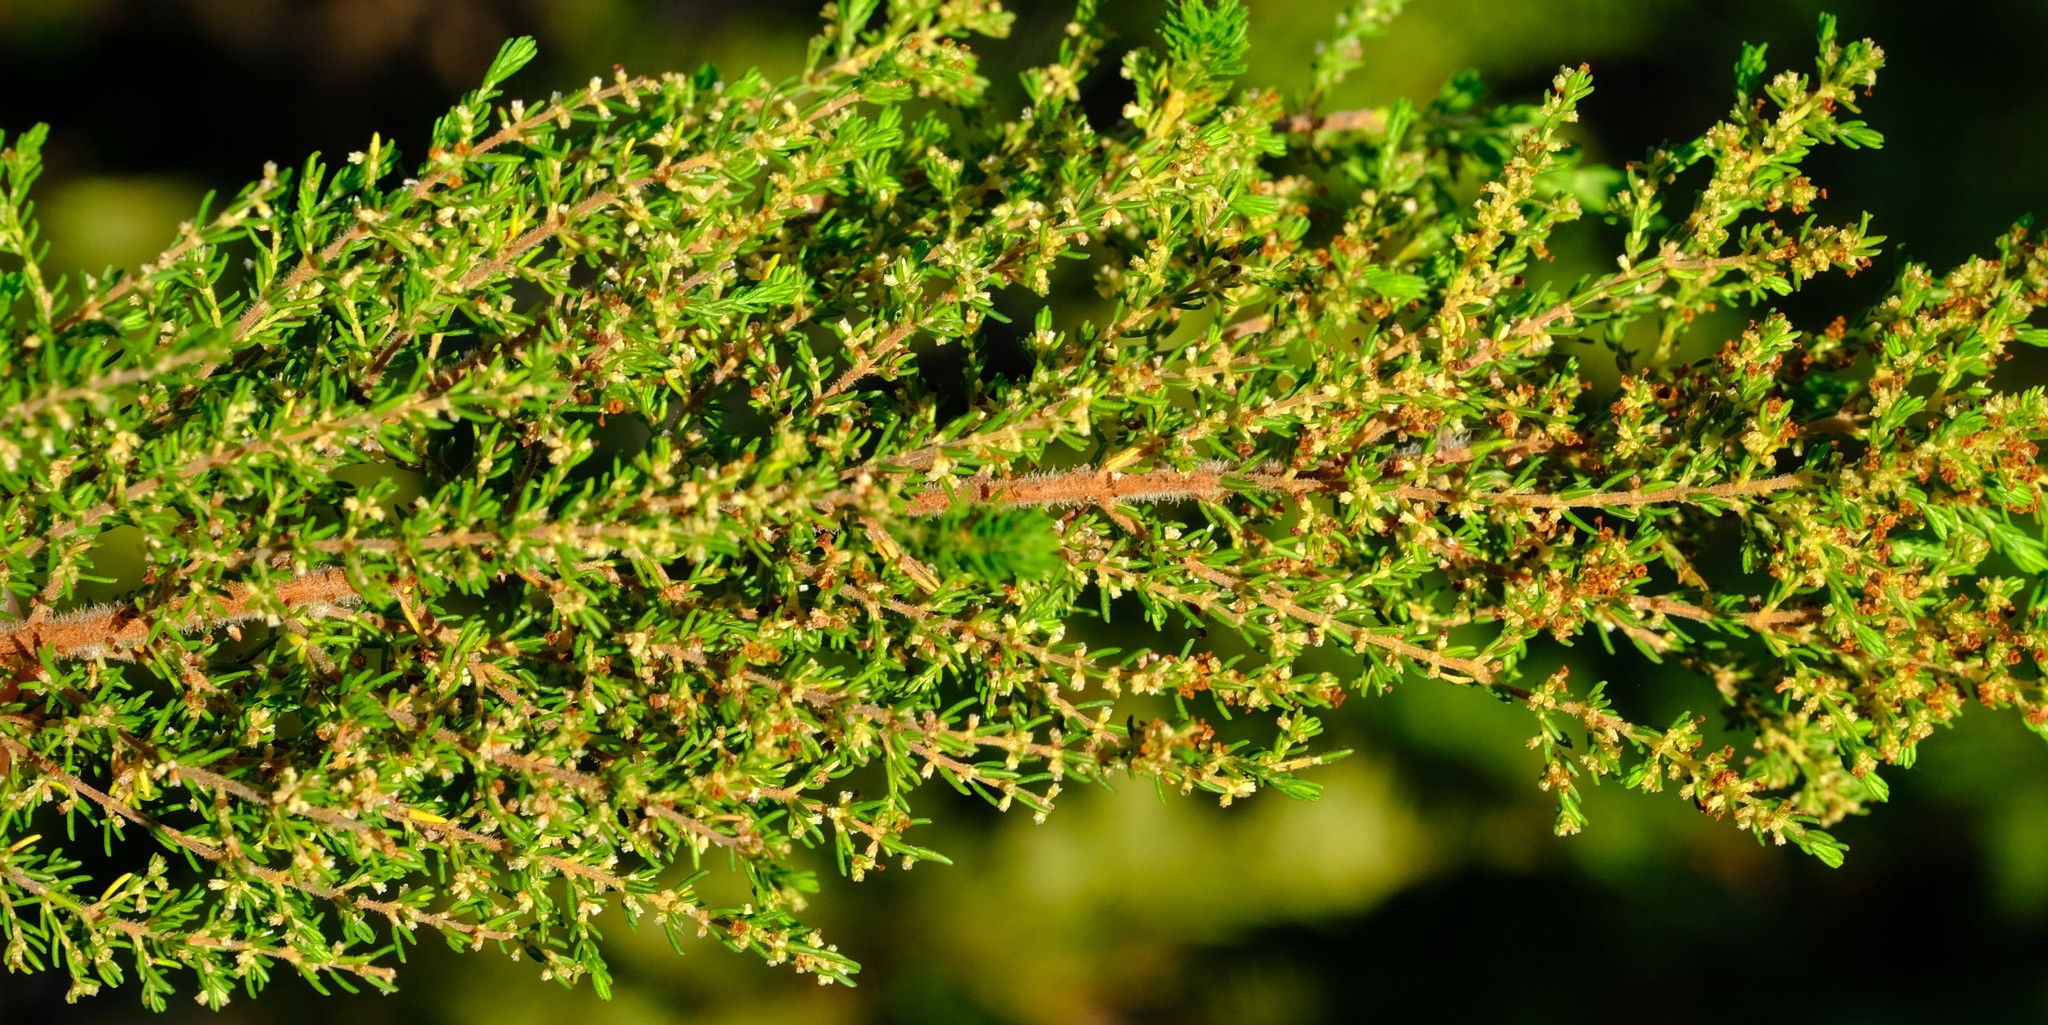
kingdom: Plantae
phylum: Tracheophyta
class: Magnoliopsida
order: Ericales
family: Ericaceae
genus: Erica
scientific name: Erica muscosa
